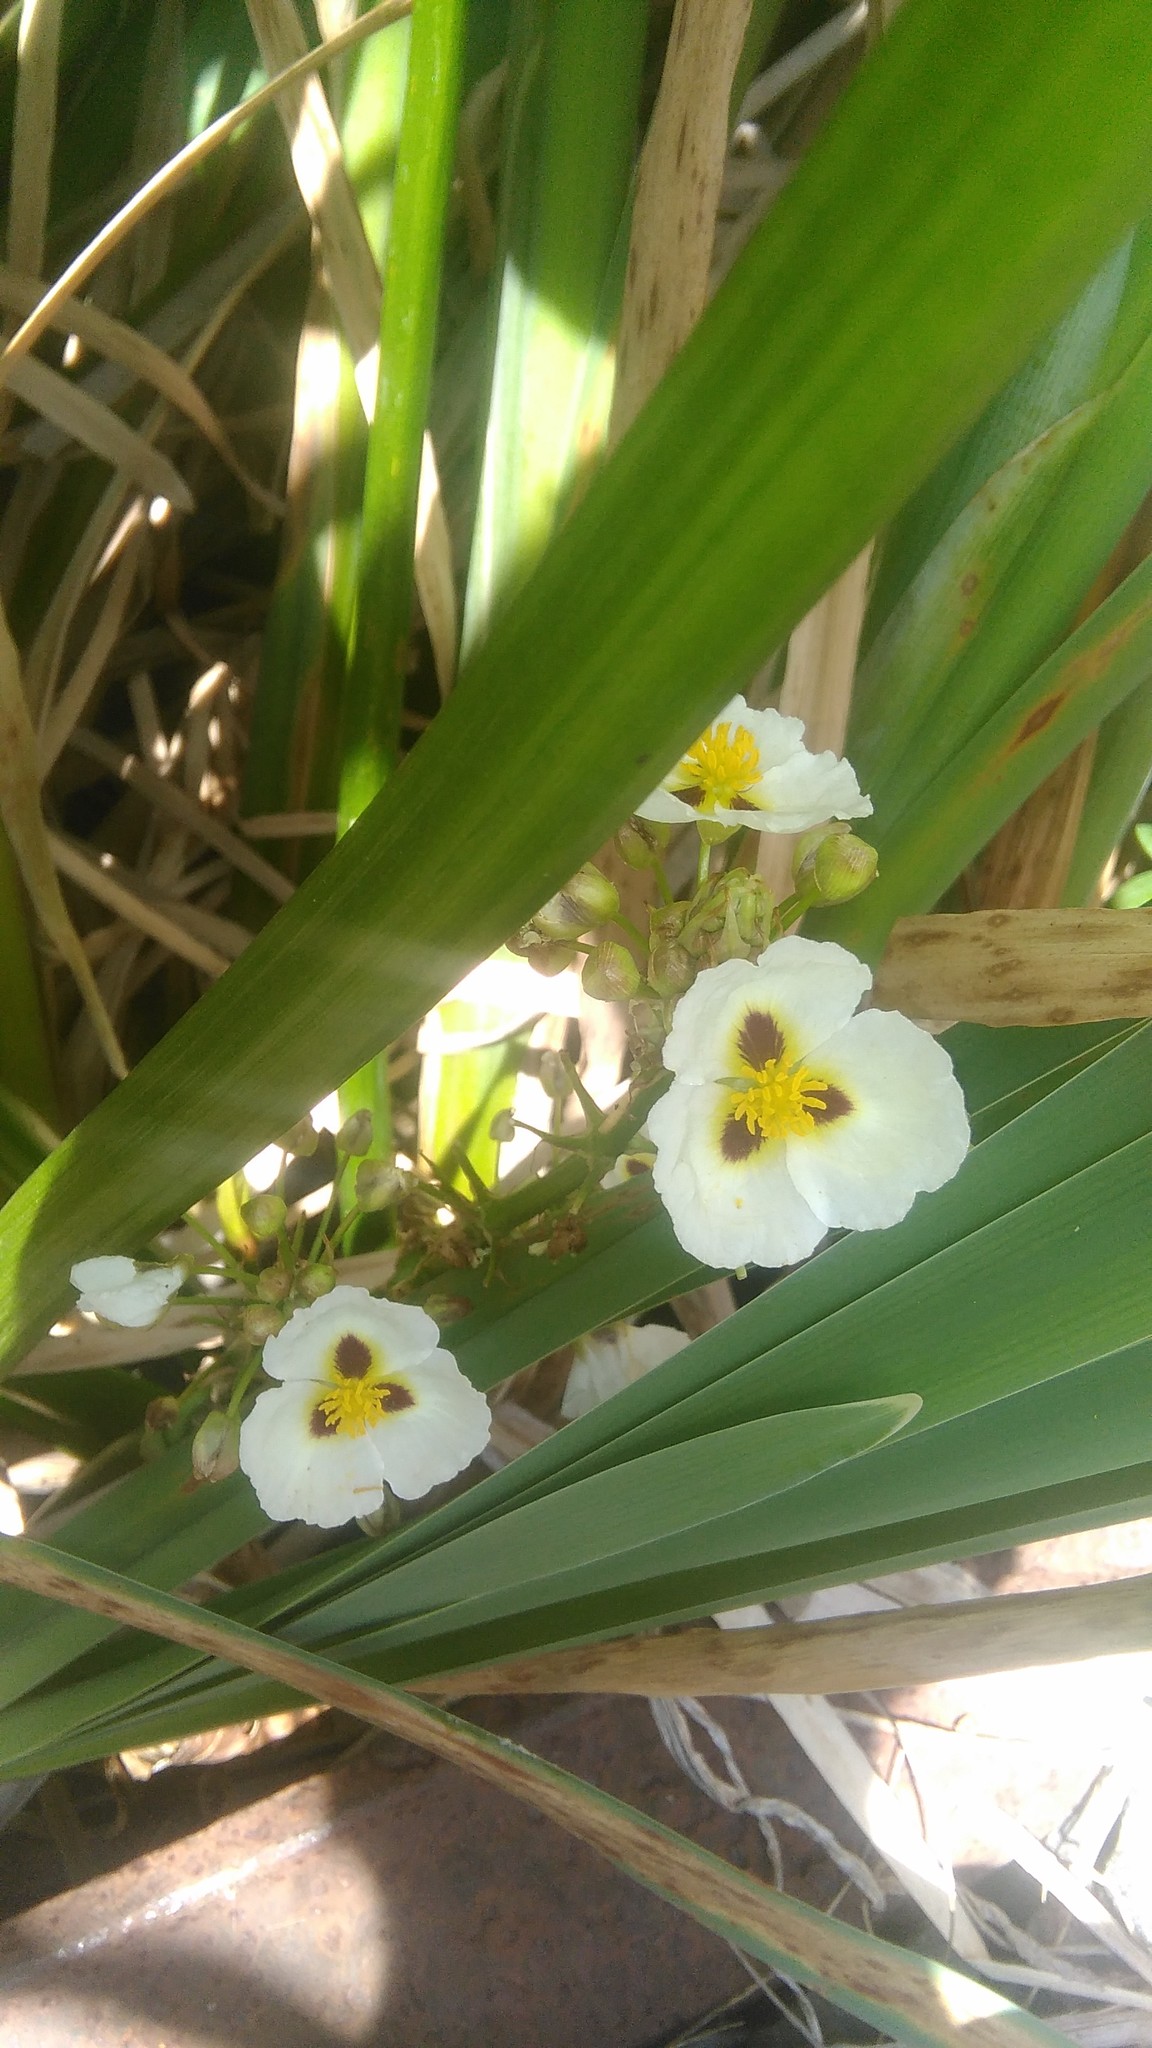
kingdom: Plantae
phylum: Tracheophyta
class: Liliopsida
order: Alismatales
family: Alismataceae
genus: Sagittaria
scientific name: Sagittaria montevidensis
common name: Giant arrowhead
